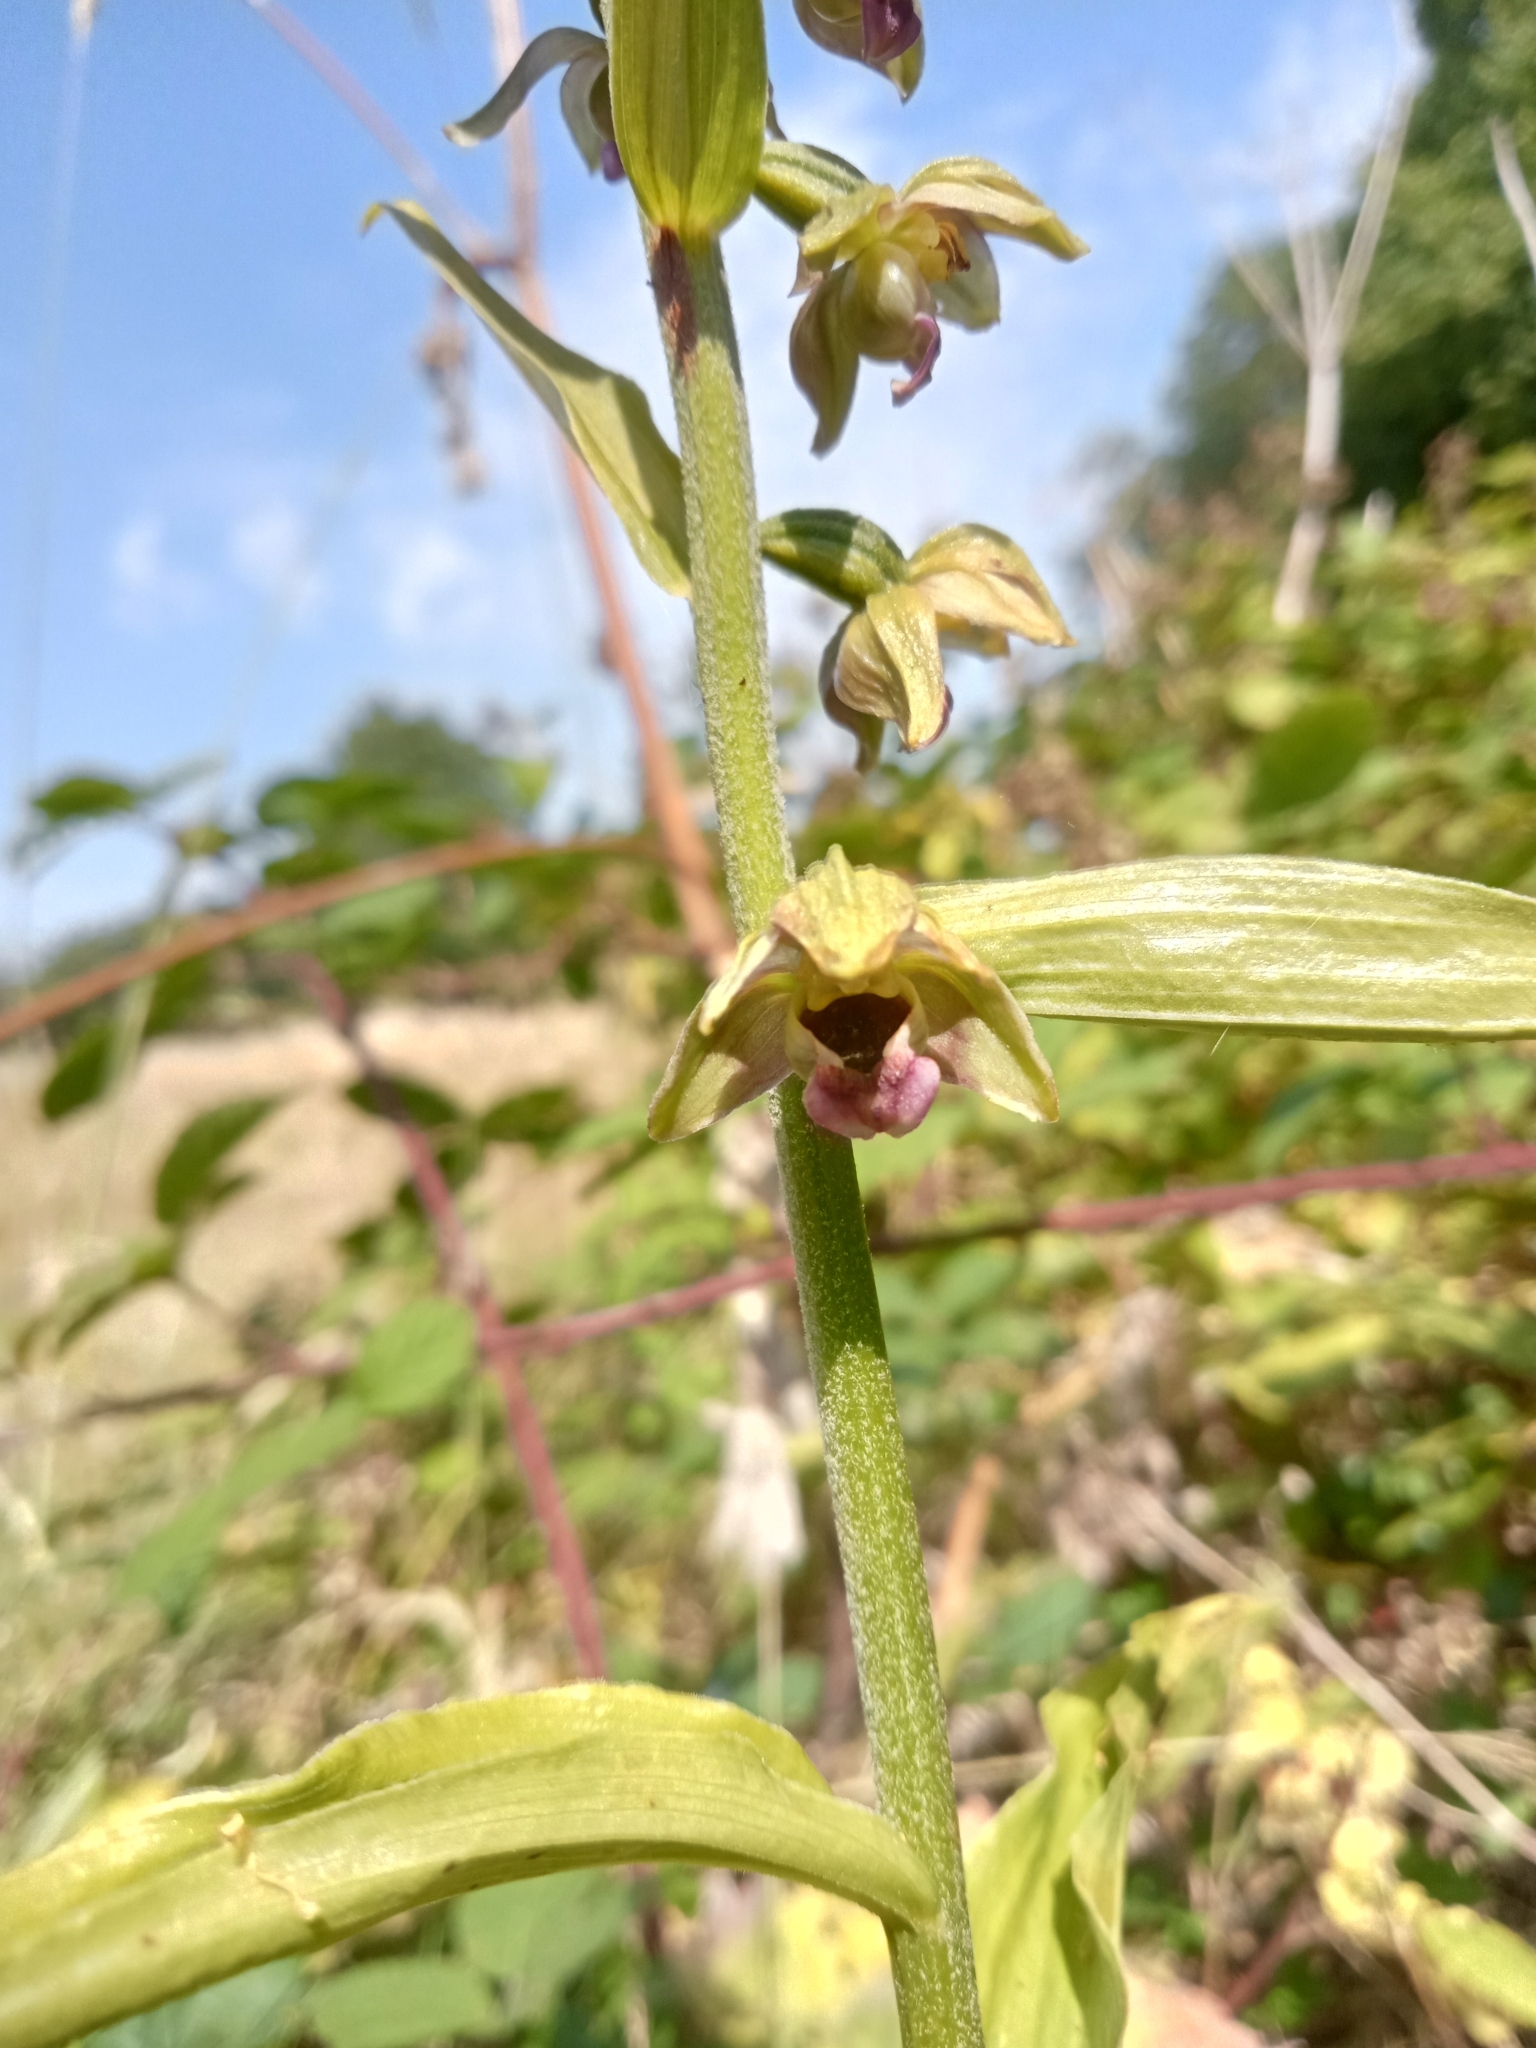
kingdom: Plantae
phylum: Tracheophyta
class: Liliopsida
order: Asparagales
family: Orchidaceae
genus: Epipactis
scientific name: Epipactis helleborine
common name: Broad-leaved helleborine
